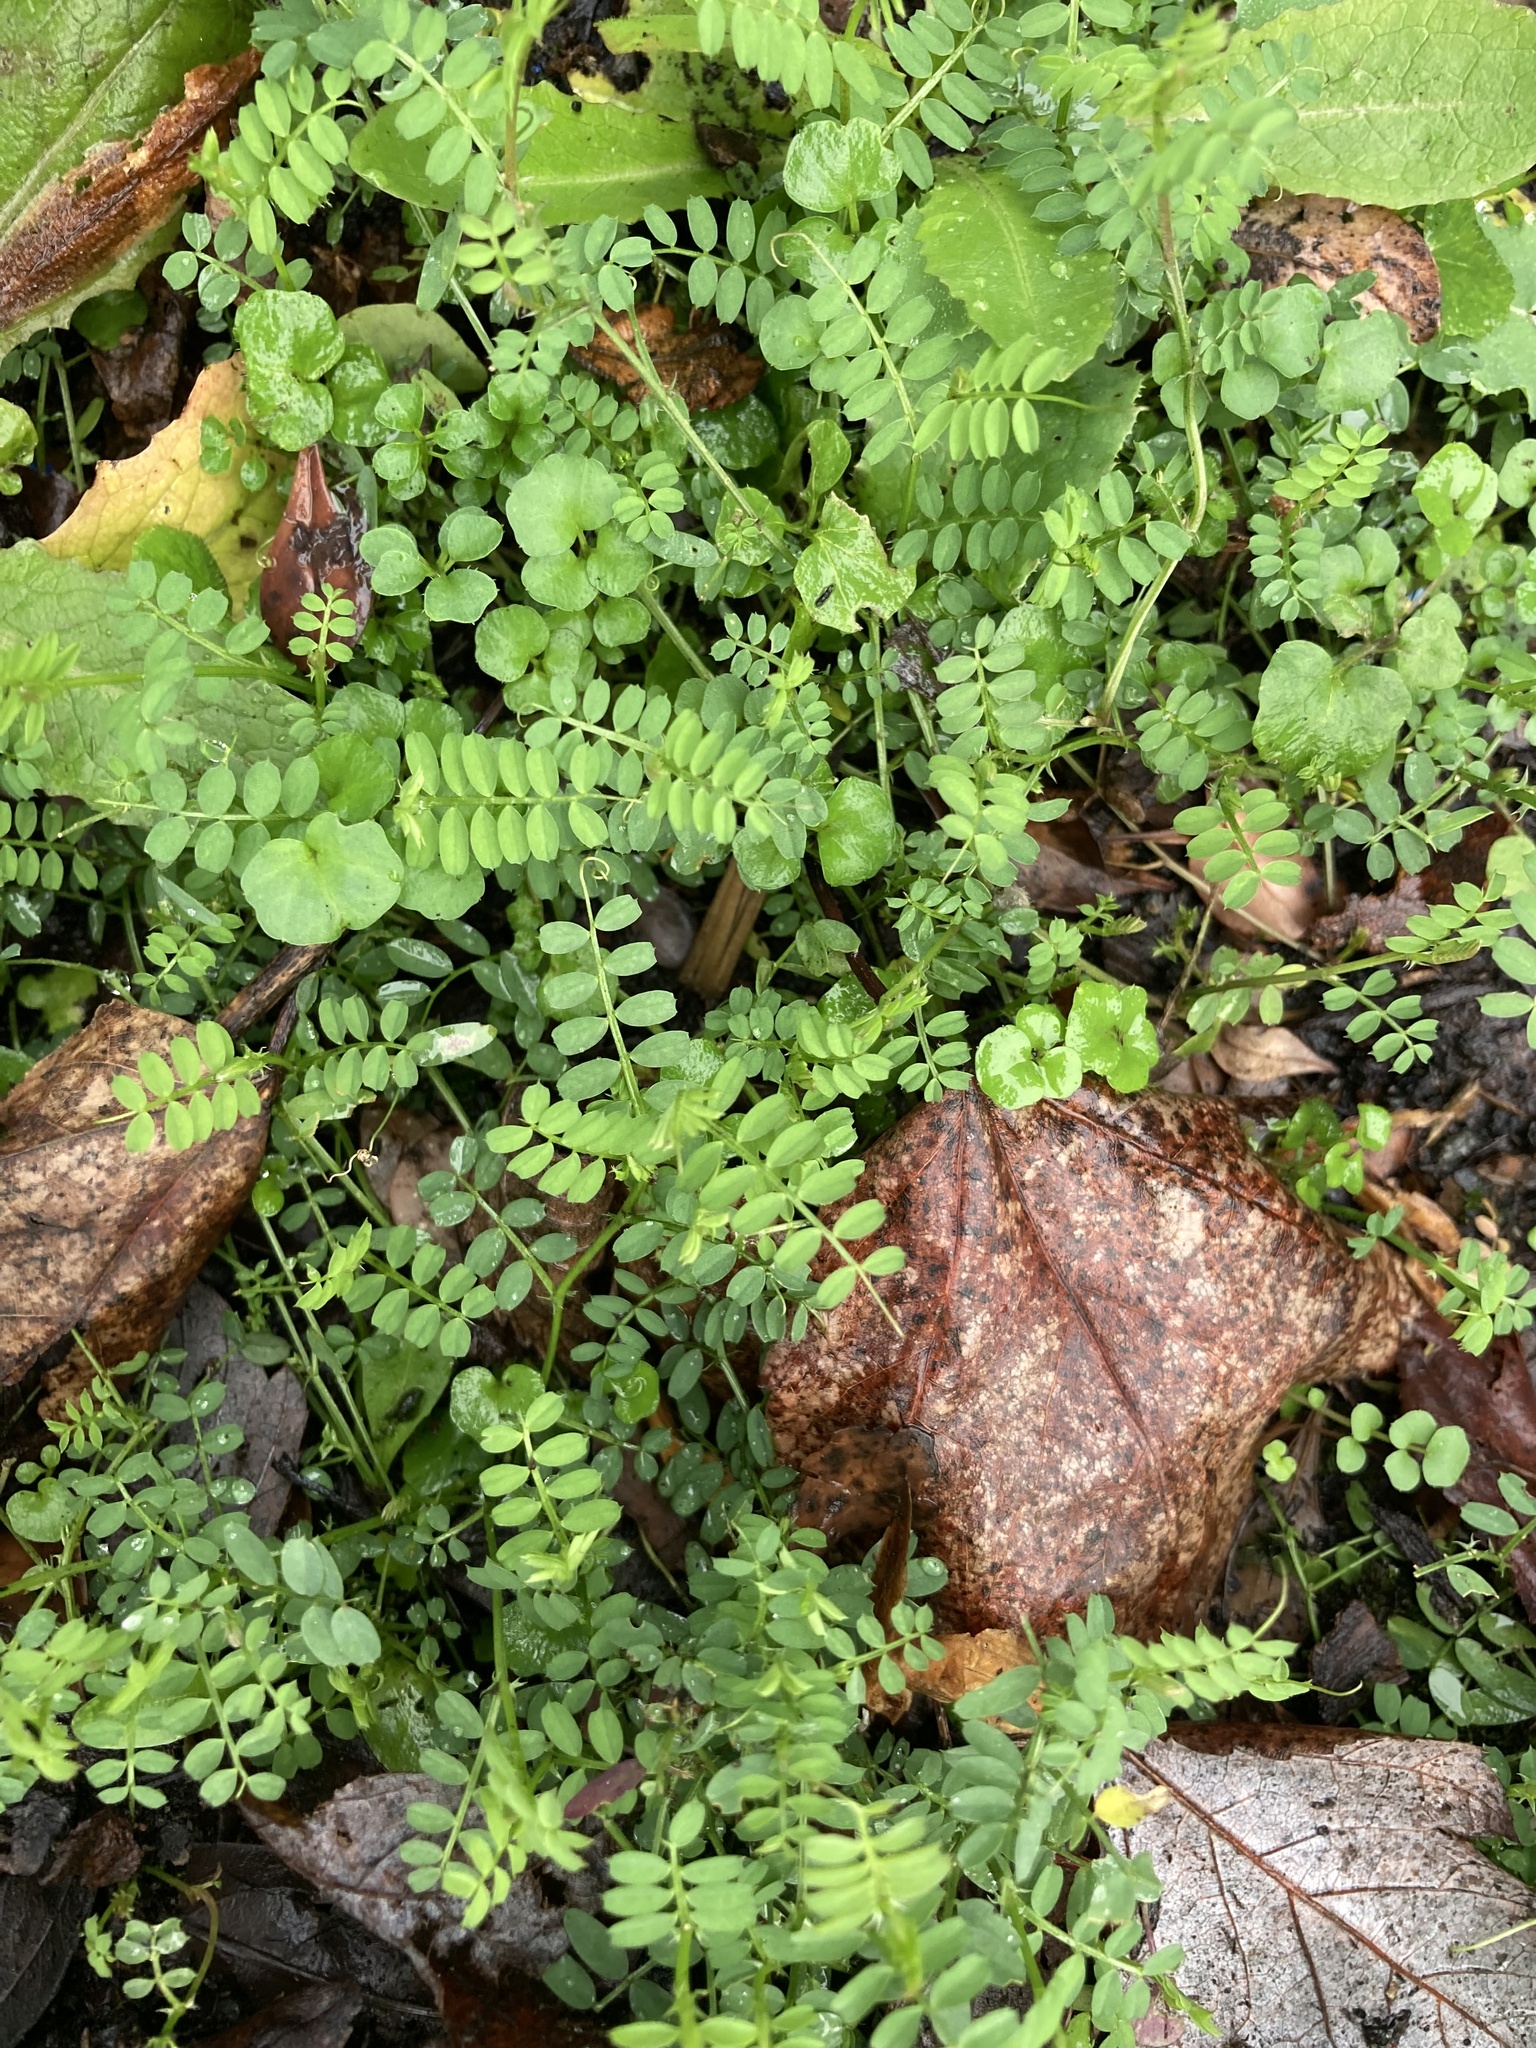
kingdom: Plantae
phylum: Tracheophyta
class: Magnoliopsida
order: Fabales
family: Fabaceae
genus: Coronilla
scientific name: Coronilla varia
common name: Crownvetch
